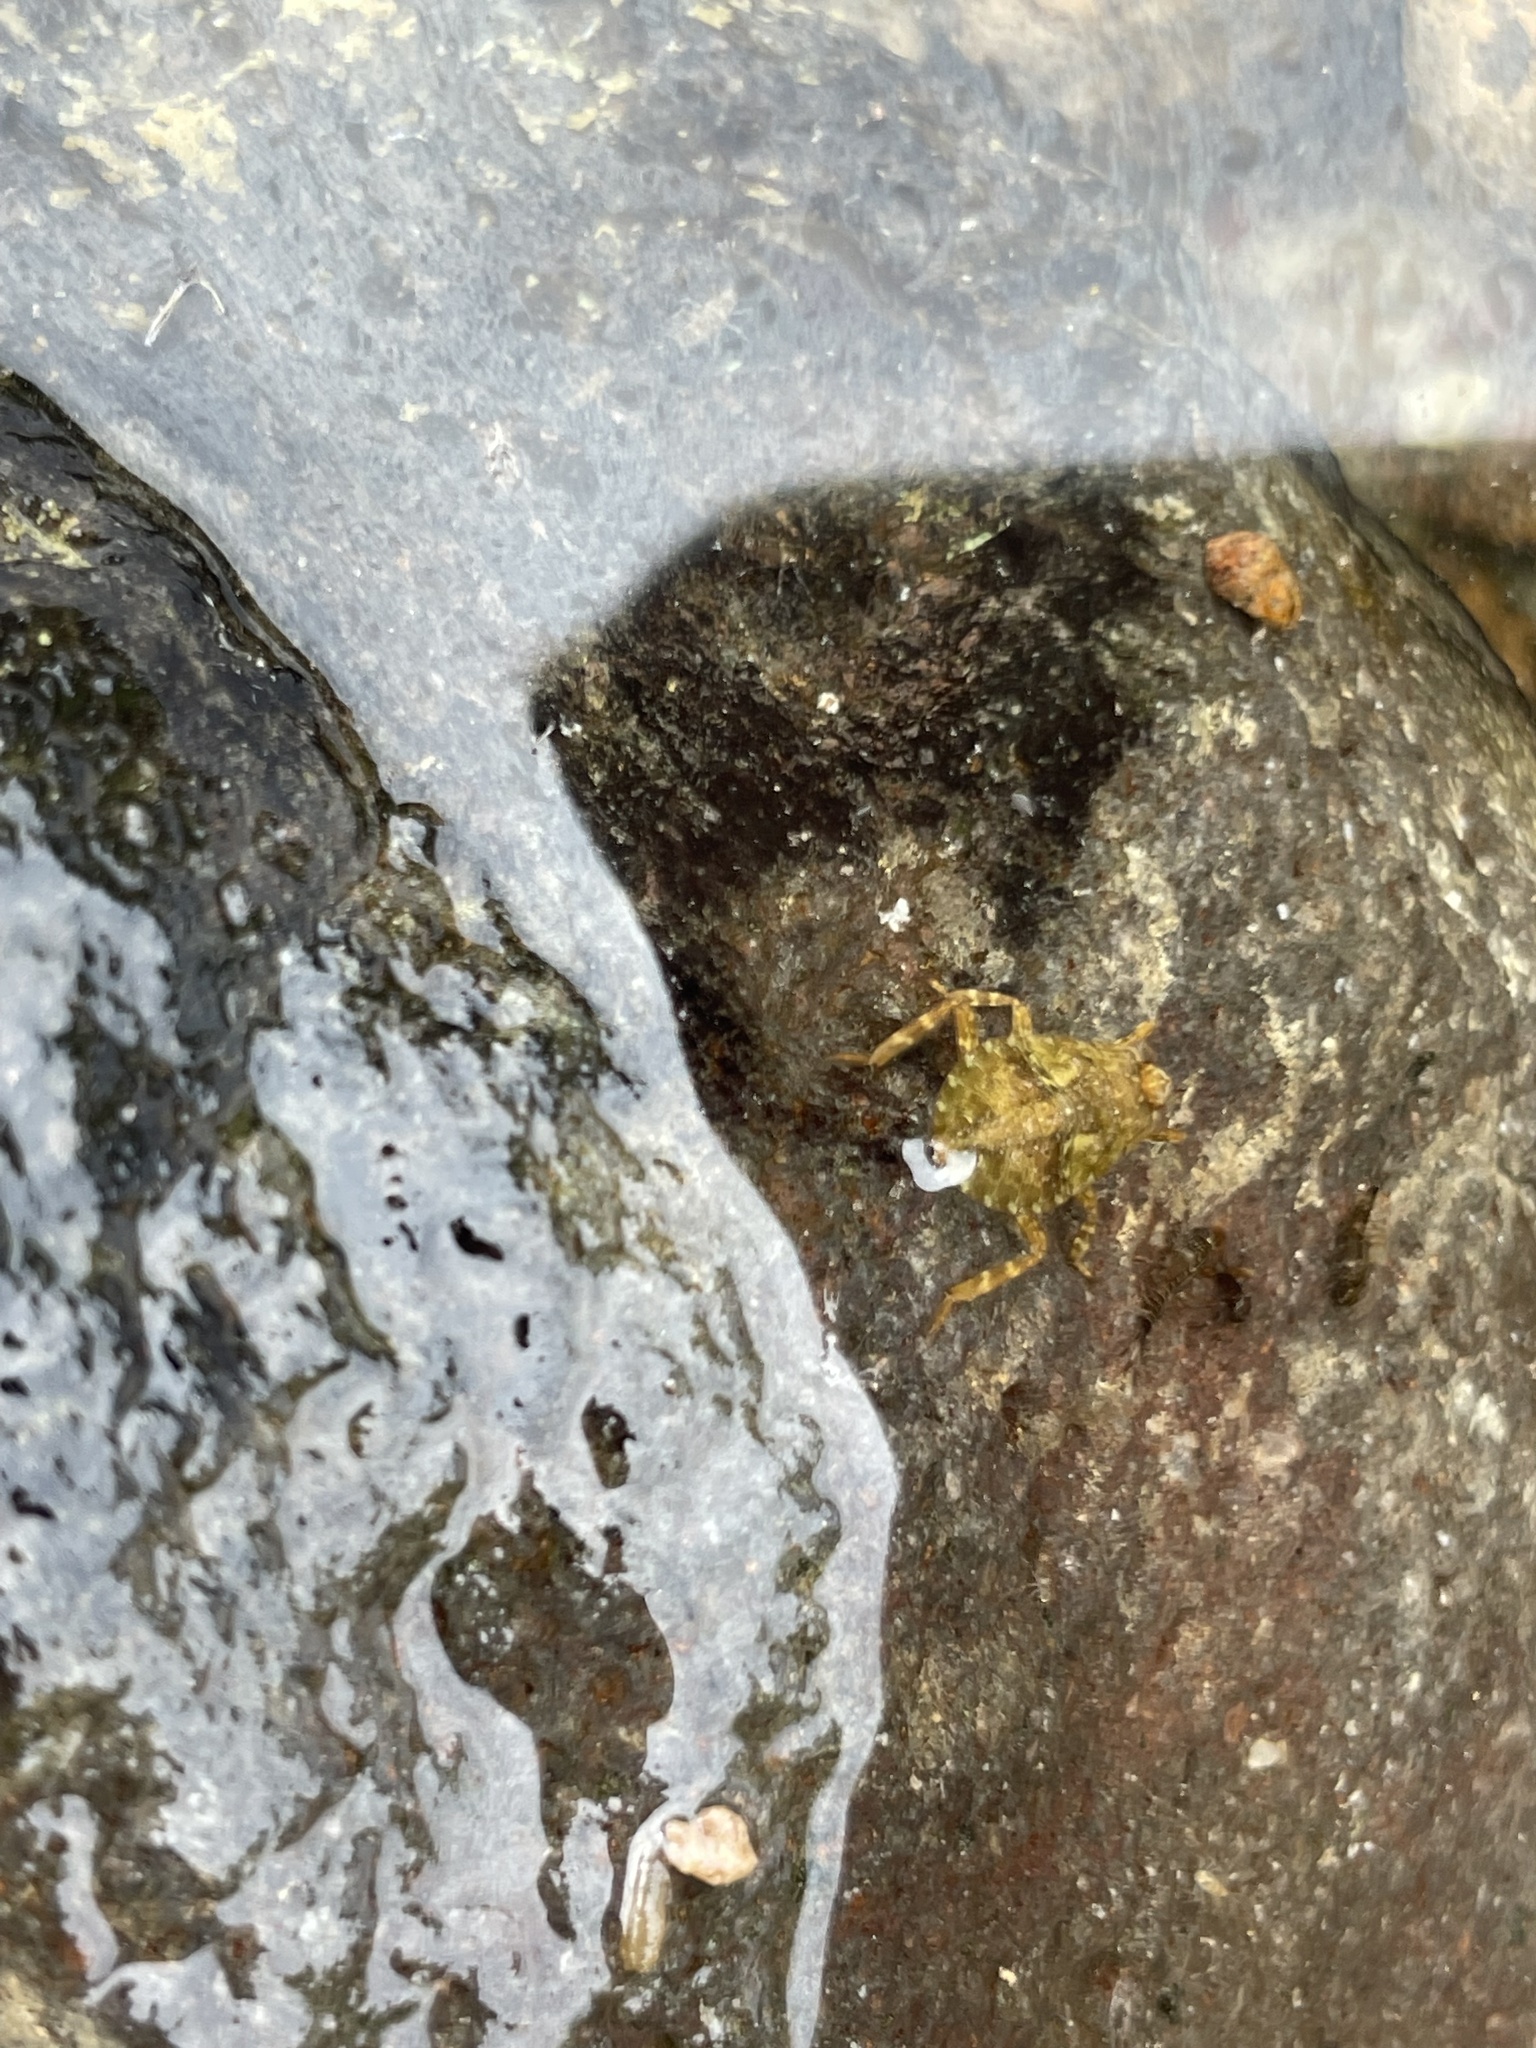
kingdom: Animalia
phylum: Arthropoda
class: Insecta
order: Hemiptera
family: Belostomatidae
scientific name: Belostomatidae
